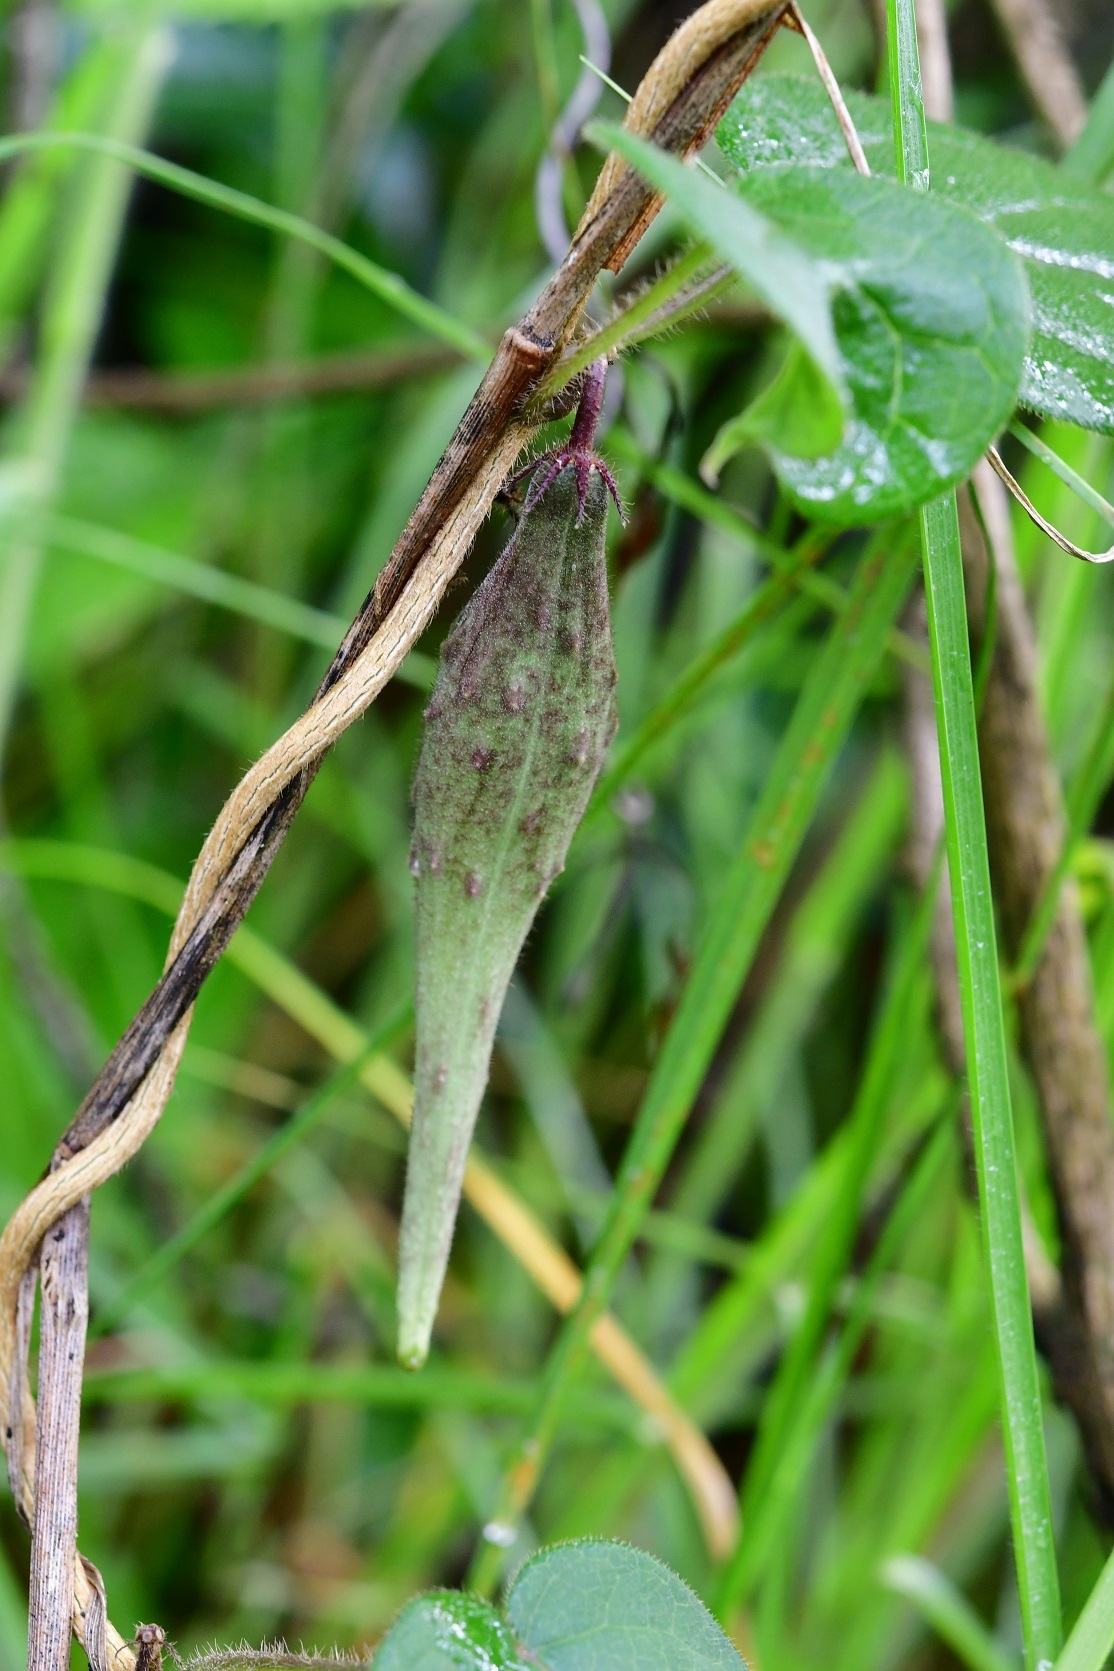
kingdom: Plantae
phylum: Tracheophyta
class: Magnoliopsida
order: Gentianales
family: Apocynaceae
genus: Matelea
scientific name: Matelea medusae
